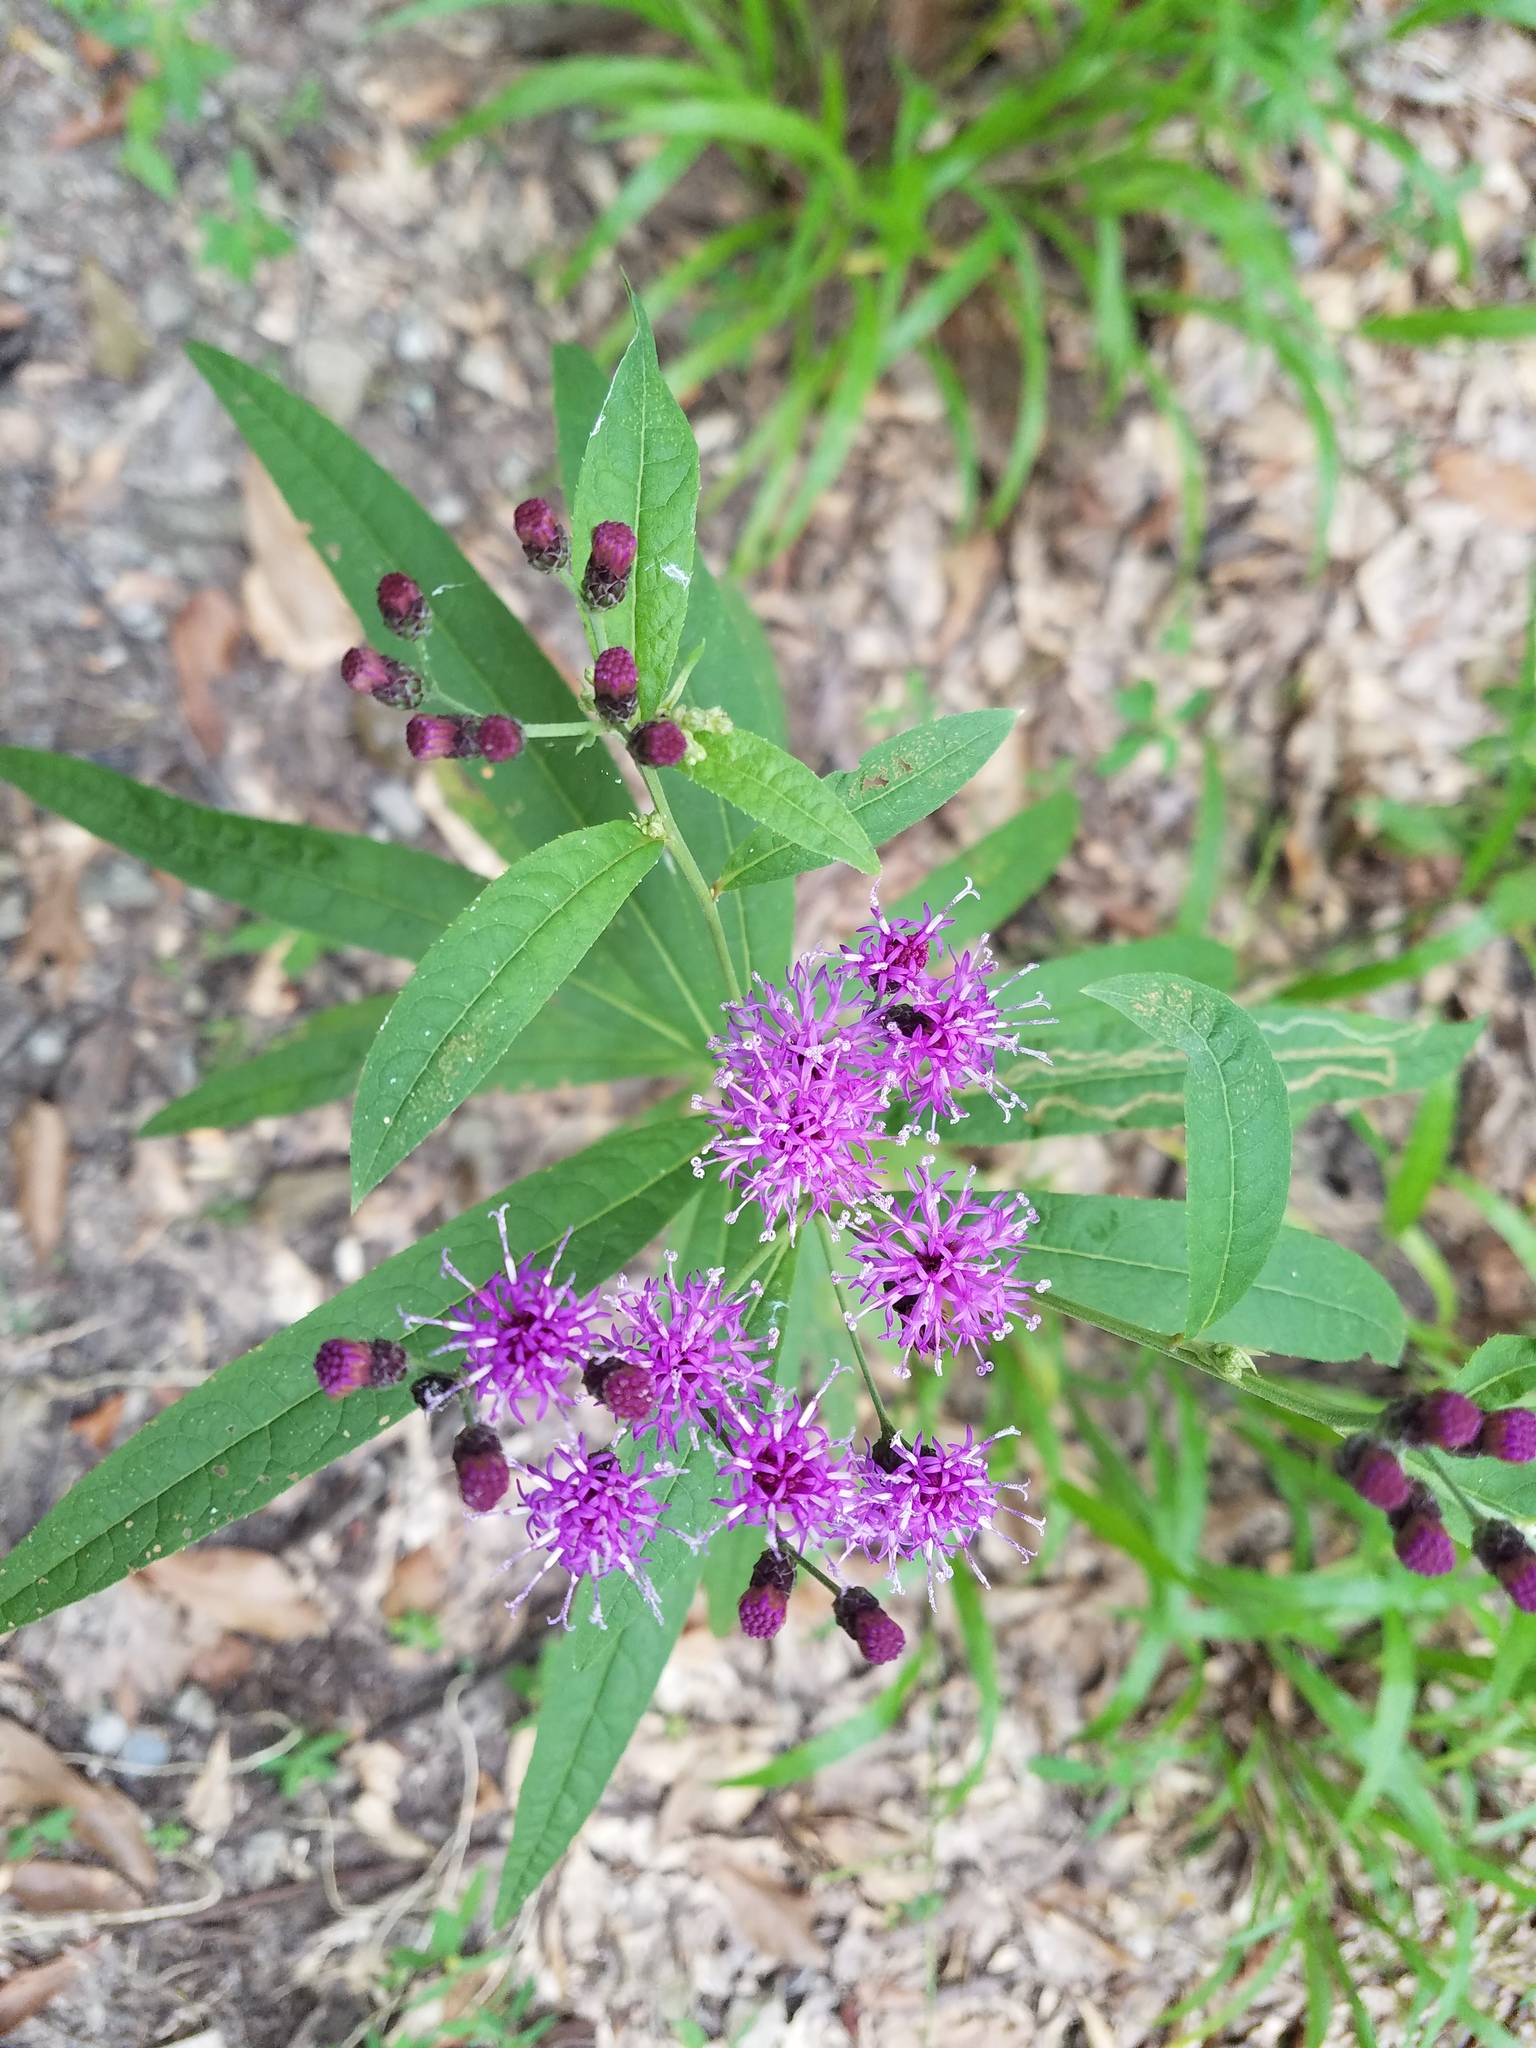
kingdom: Plantae
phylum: Tracheophyta
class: Magnoliopsida
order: Asterales
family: Asteraceae
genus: Vernonia
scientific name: Vernonia gigantea
